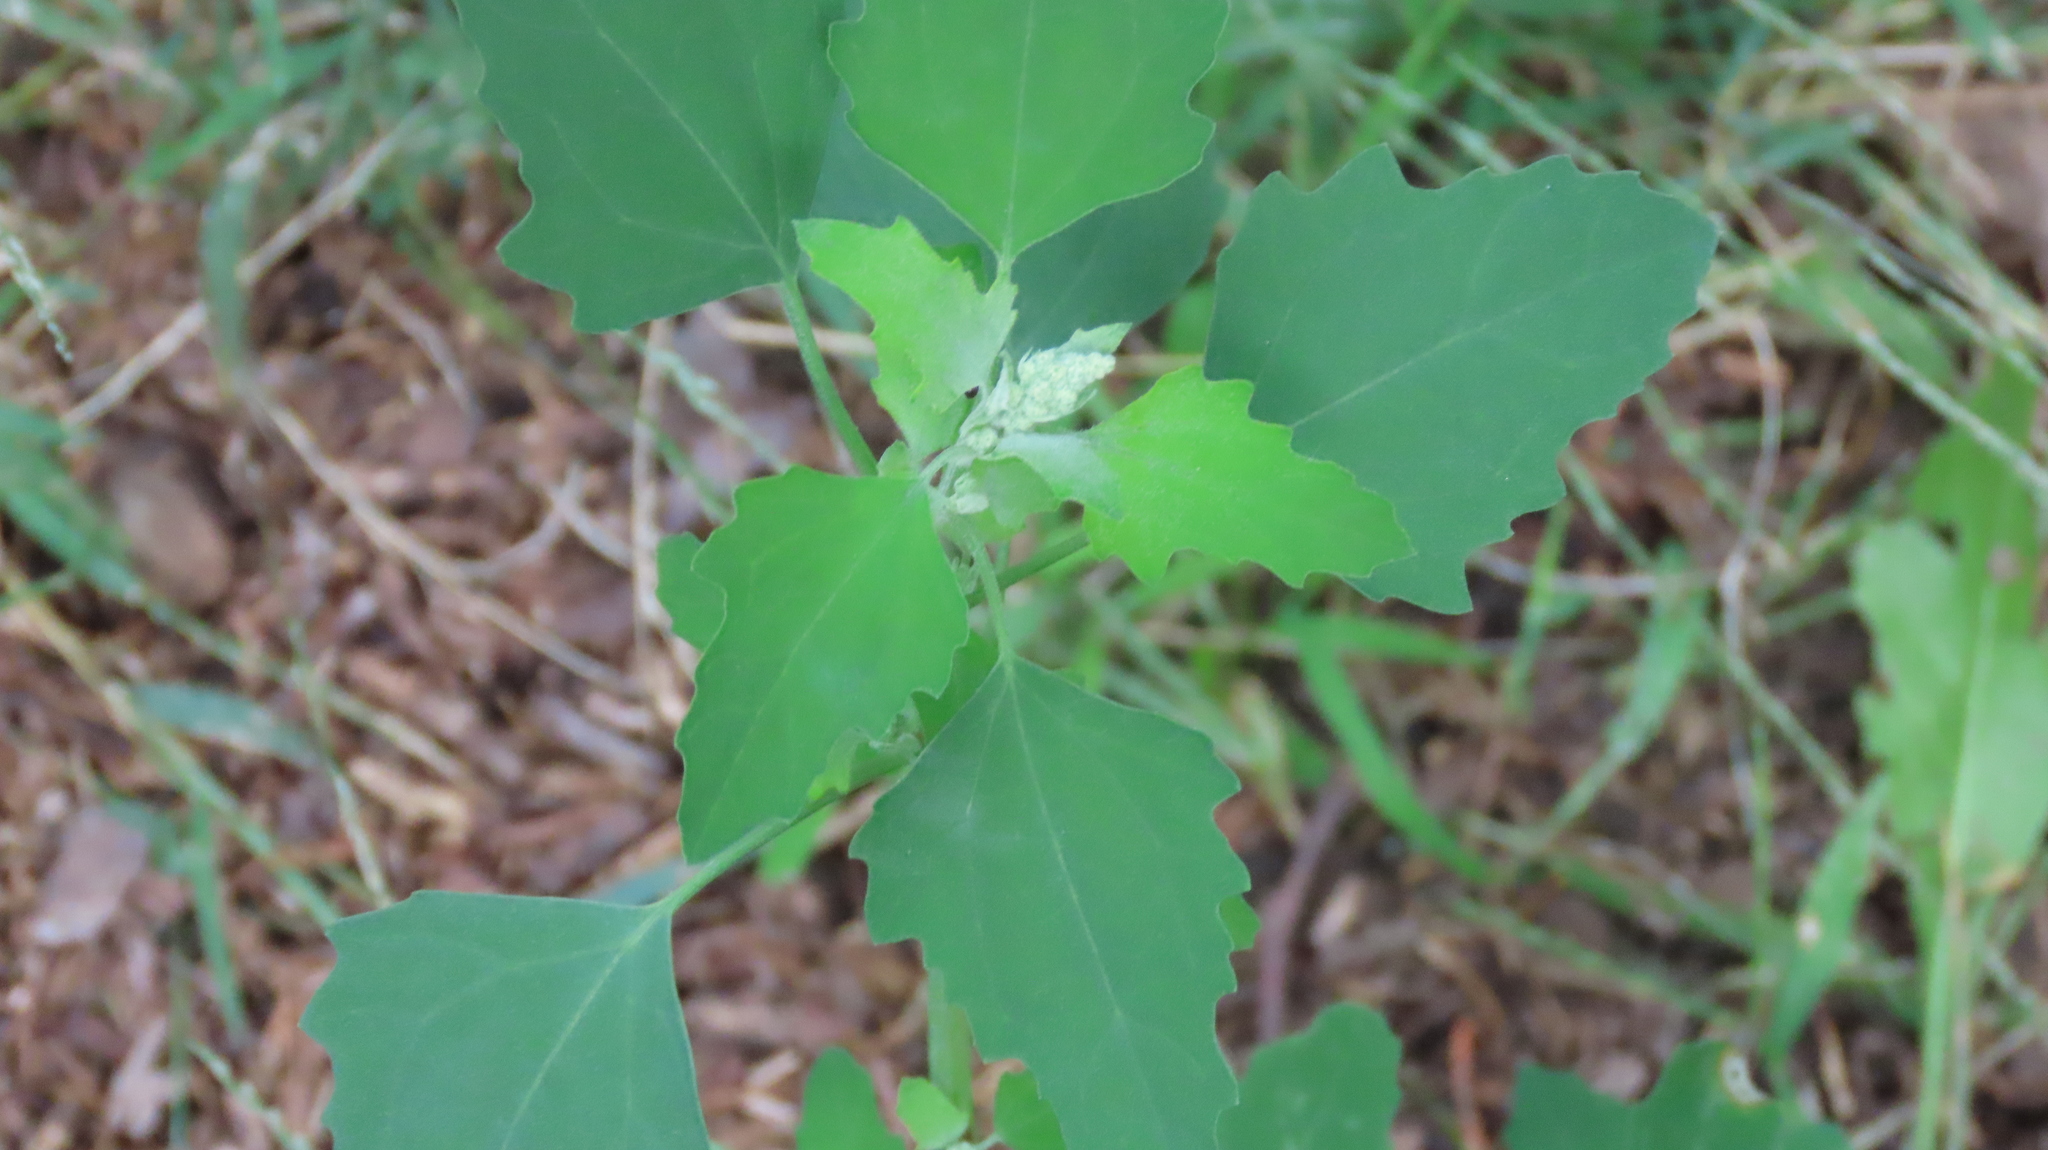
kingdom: Plantae
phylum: Tracheophyta
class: Magnoliopsida
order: Caryophyllales
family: Amaranthaceae
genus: Chenopodium
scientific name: Chenopodium album
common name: Fat-hen
